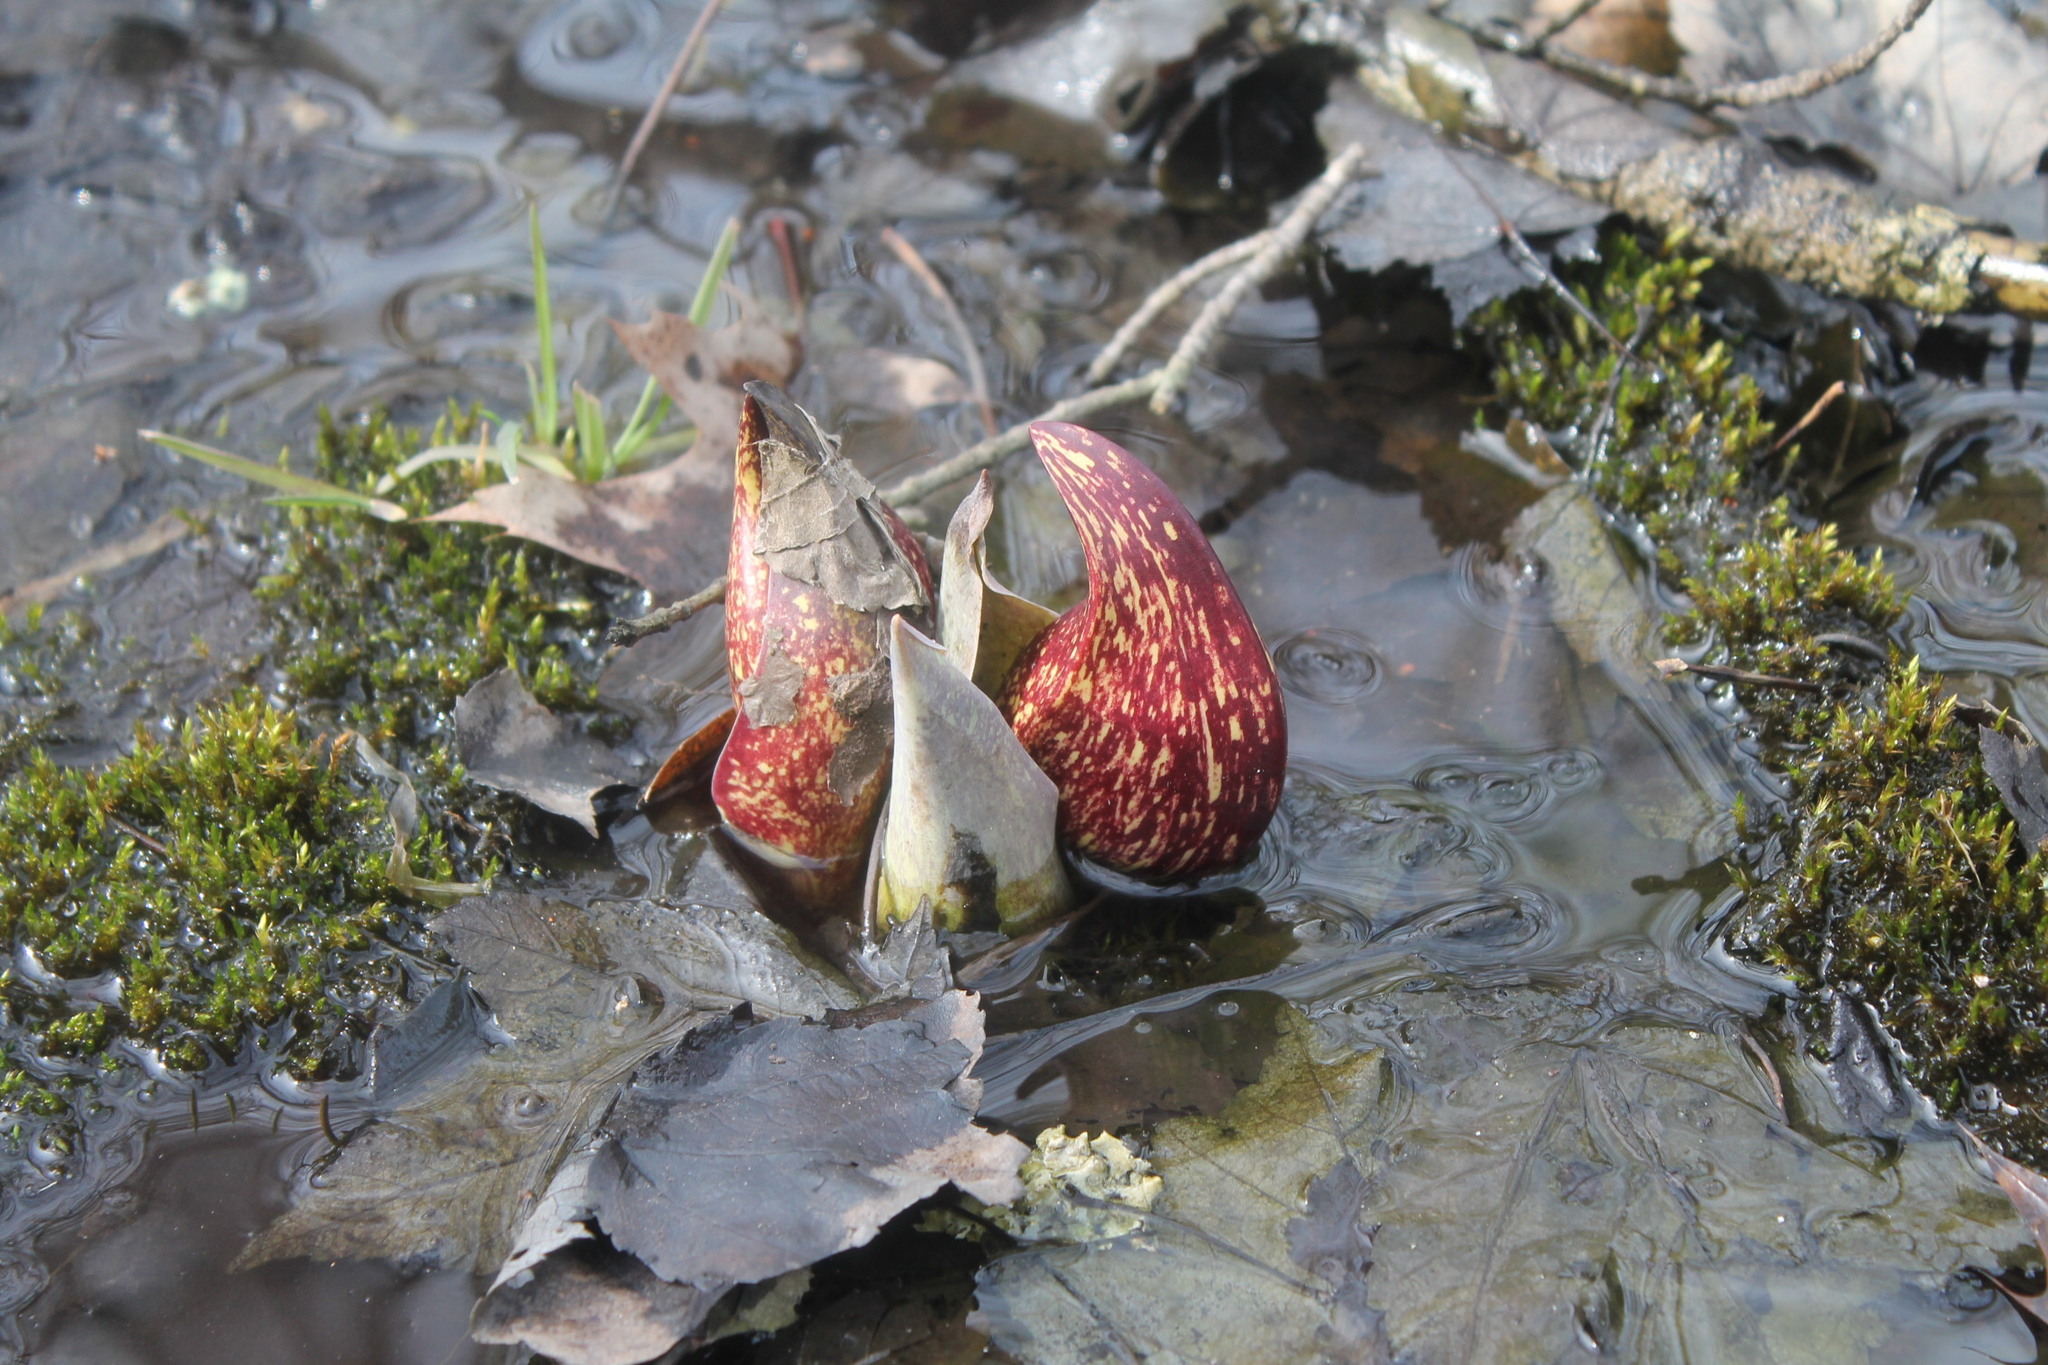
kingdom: Plantae
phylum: Tracheophyta
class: Liliopsida
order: Alismatales
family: Araceae
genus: Symplocarpus
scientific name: Symplocarpus foetidus
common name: Eastern skunk cabbage
